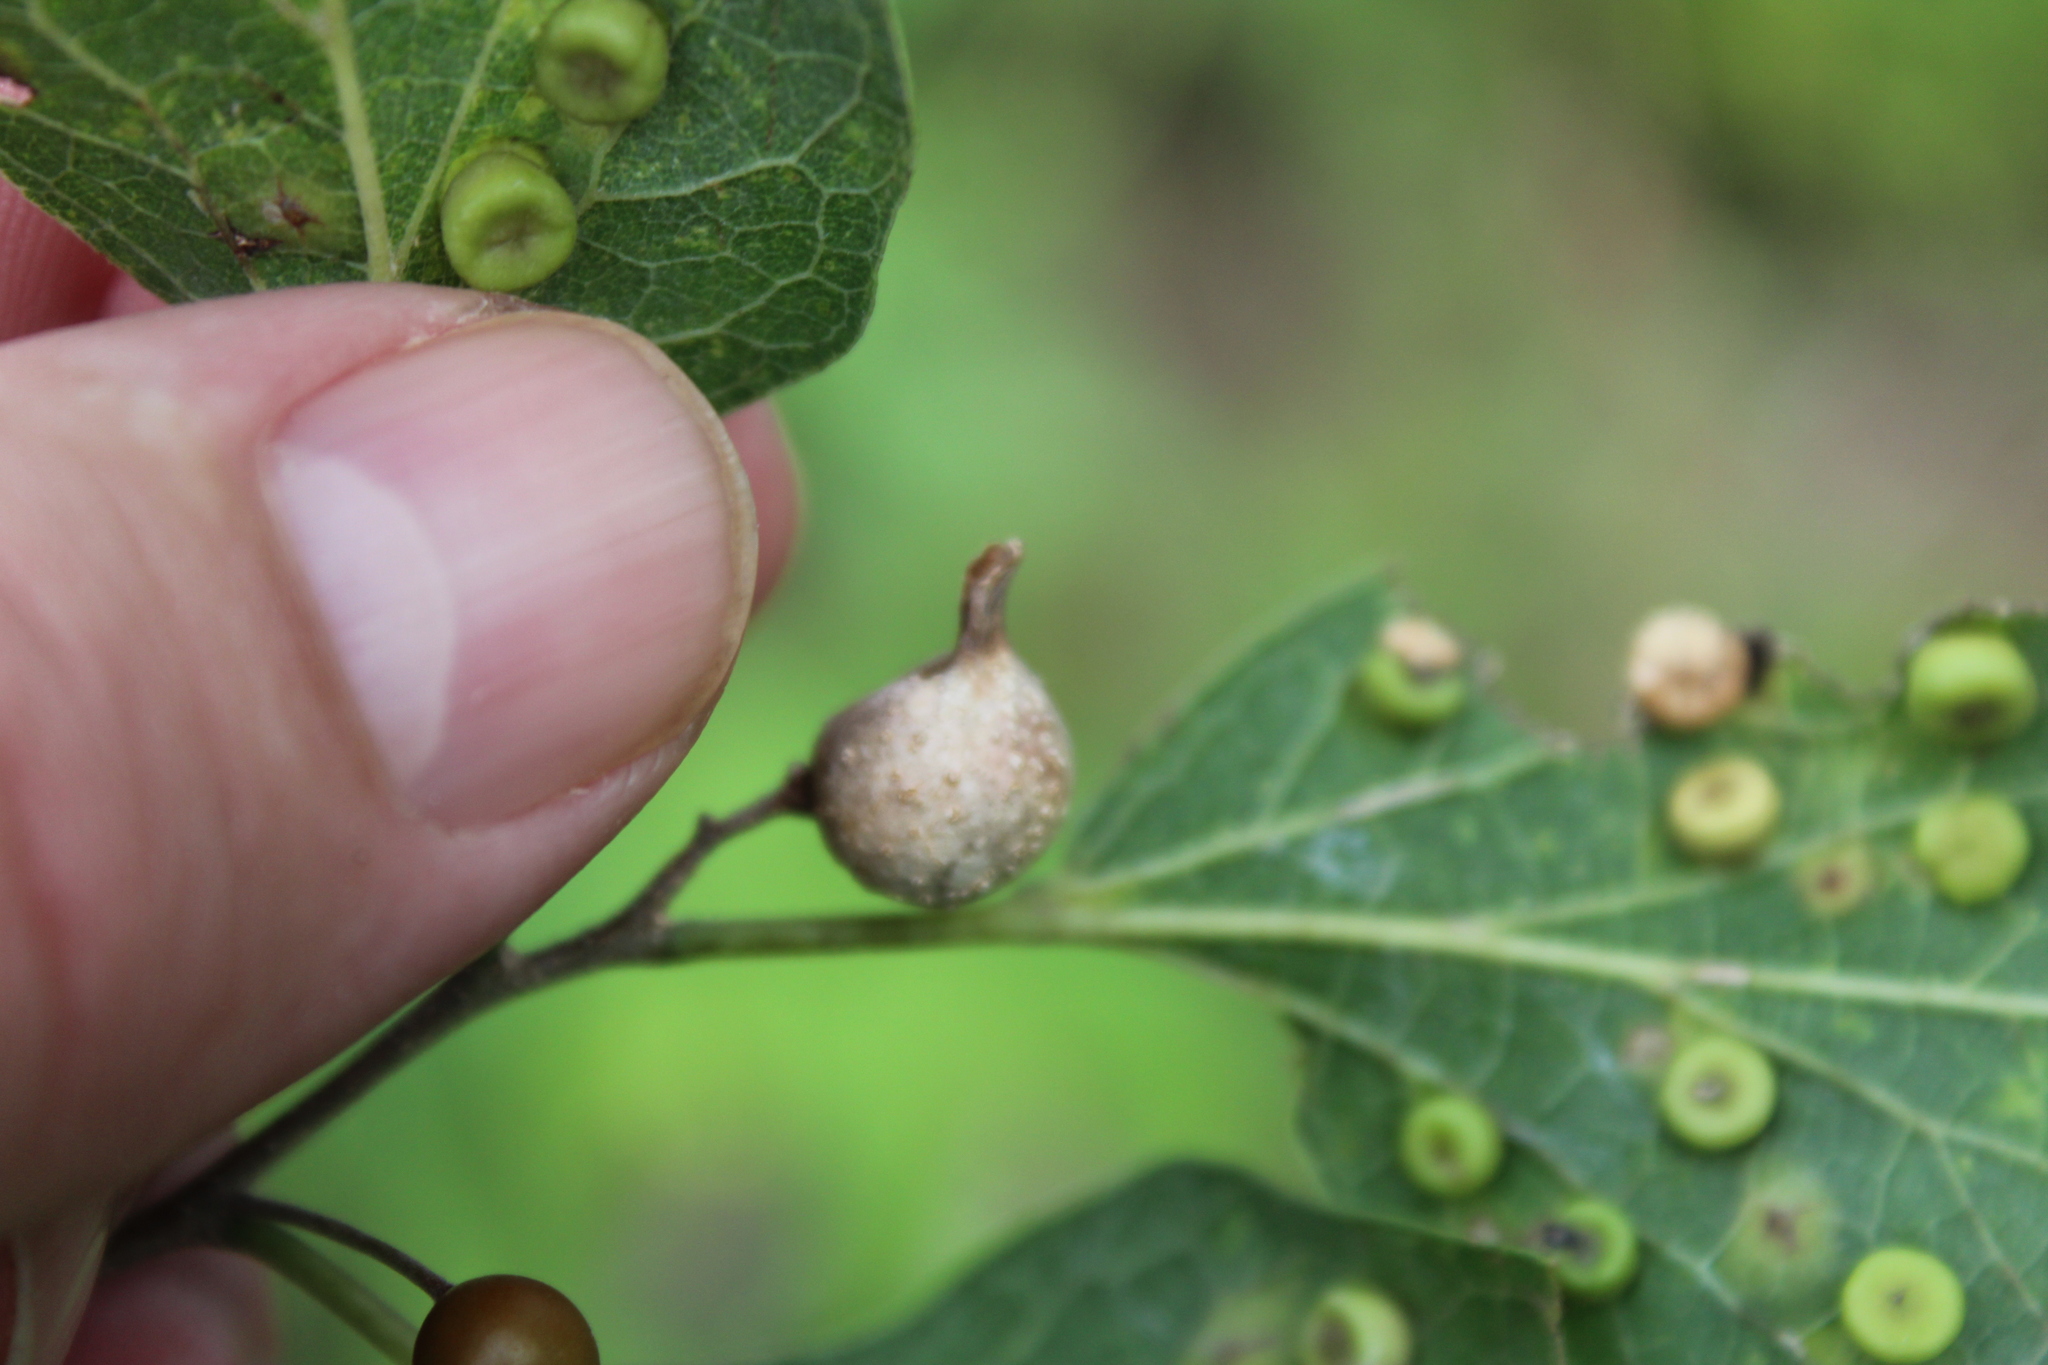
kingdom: Animalia
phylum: Arthropoda
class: Insecta
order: Hemiptera
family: Aphalaridae
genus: Pachypsylla
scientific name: Pachypsylla venusta
